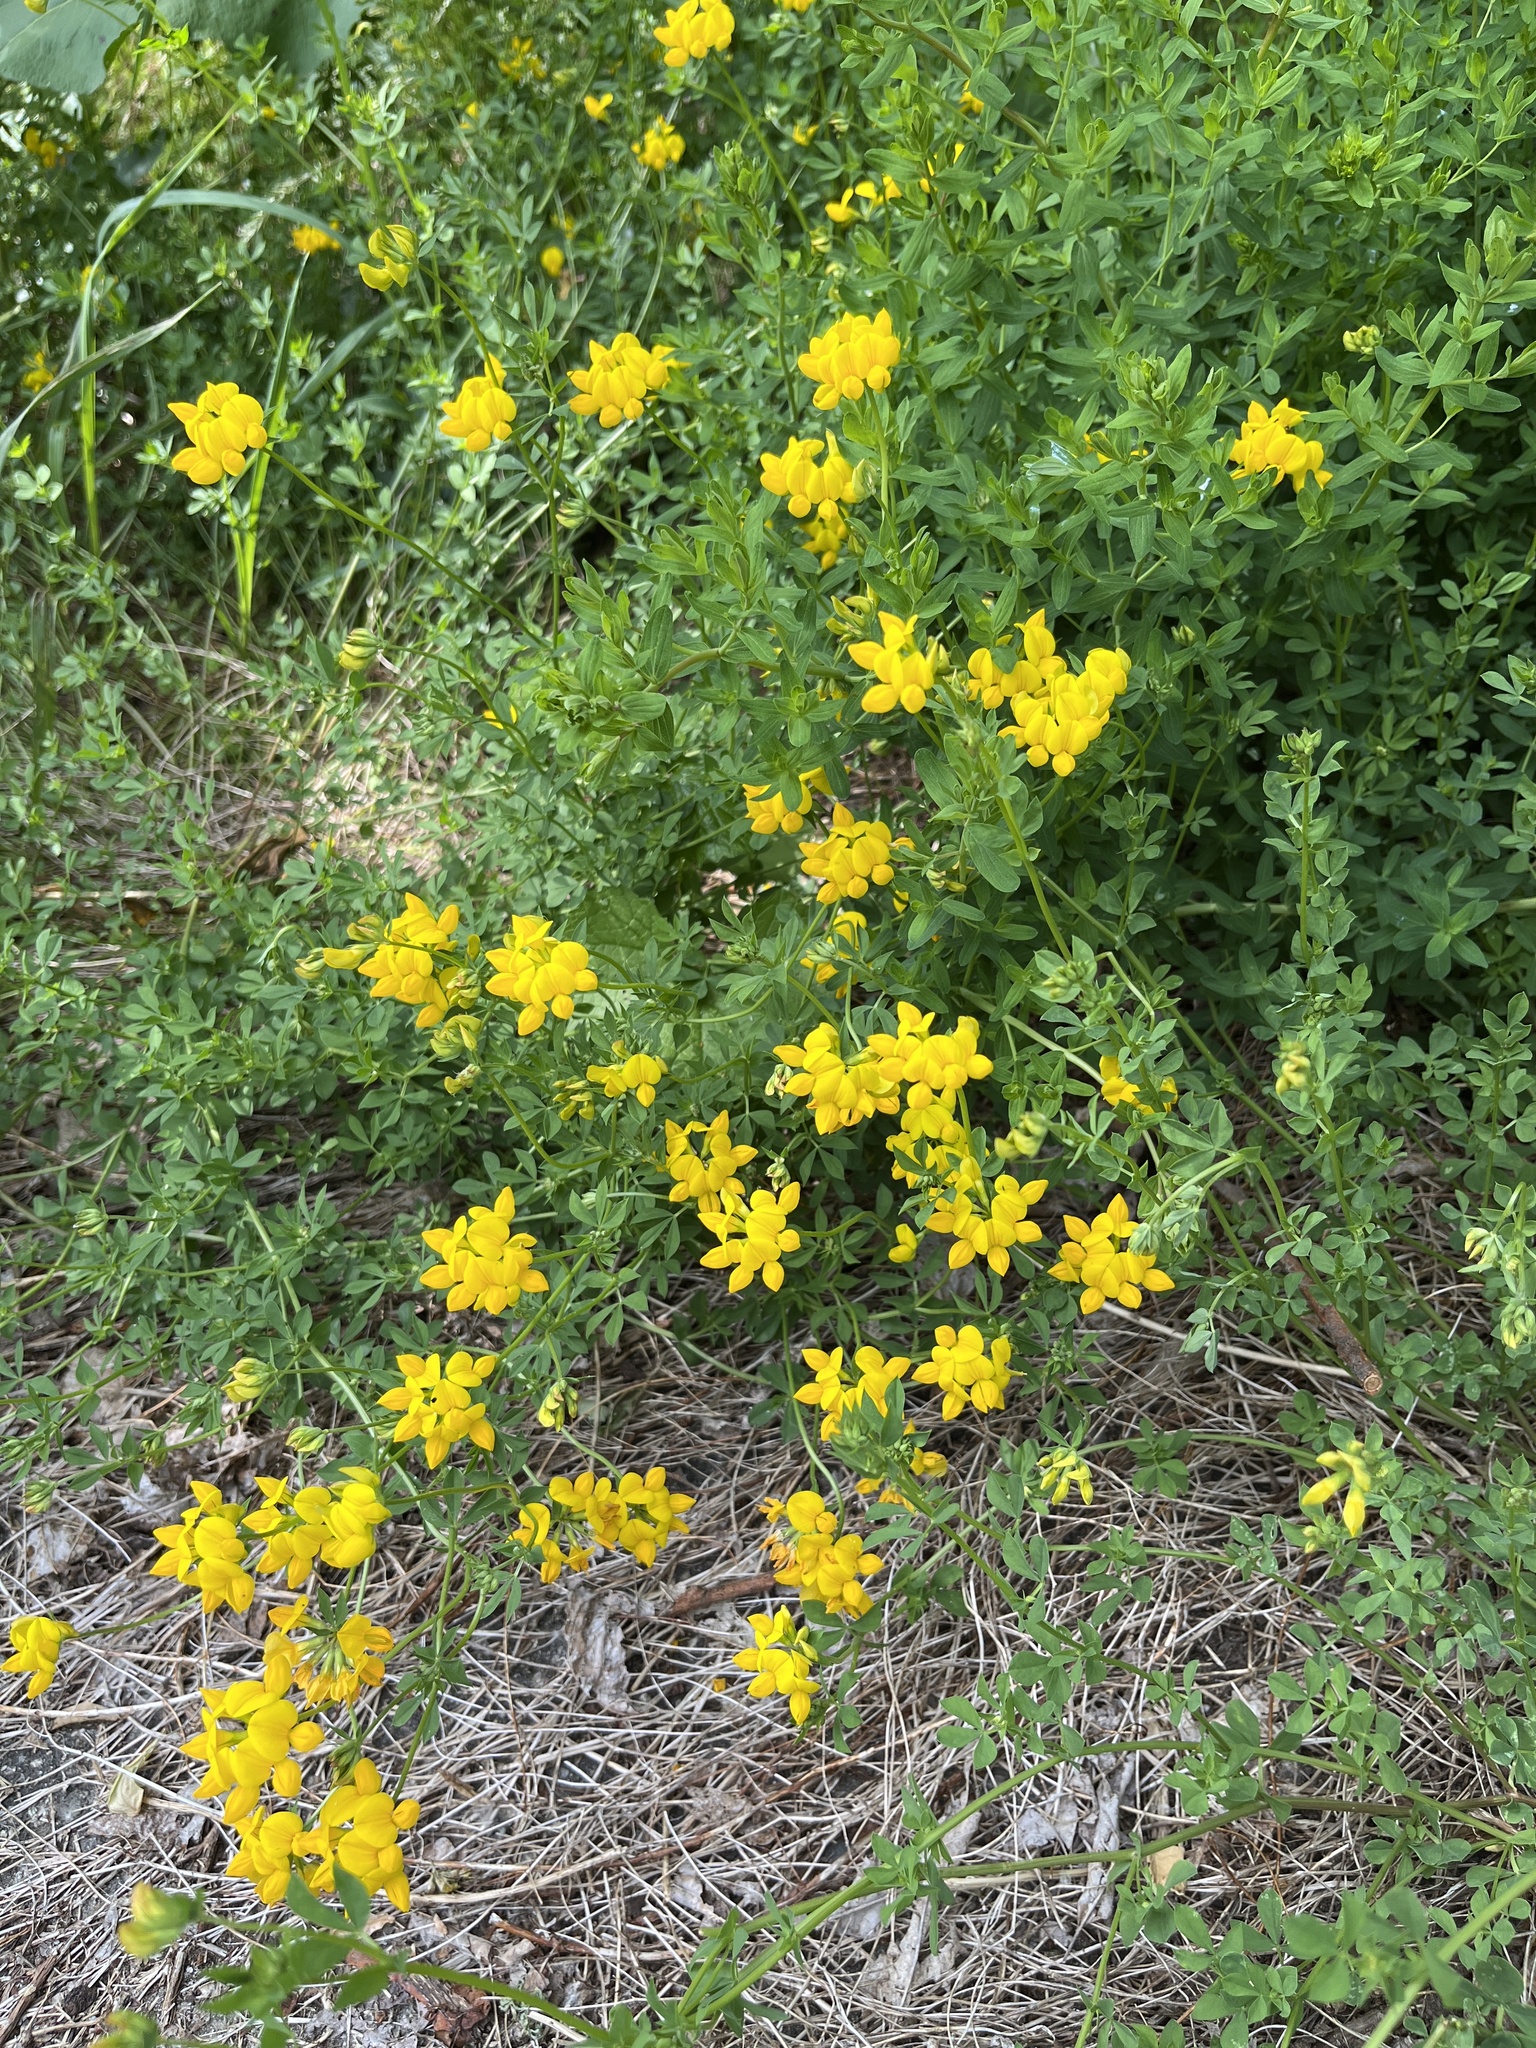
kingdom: Plantae
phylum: Tracheophyta
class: Magnoliopsida
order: Fabales
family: Fabaceae
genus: Lotus
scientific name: Lotus corniculatus
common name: Common bird's-foot-trefoil
